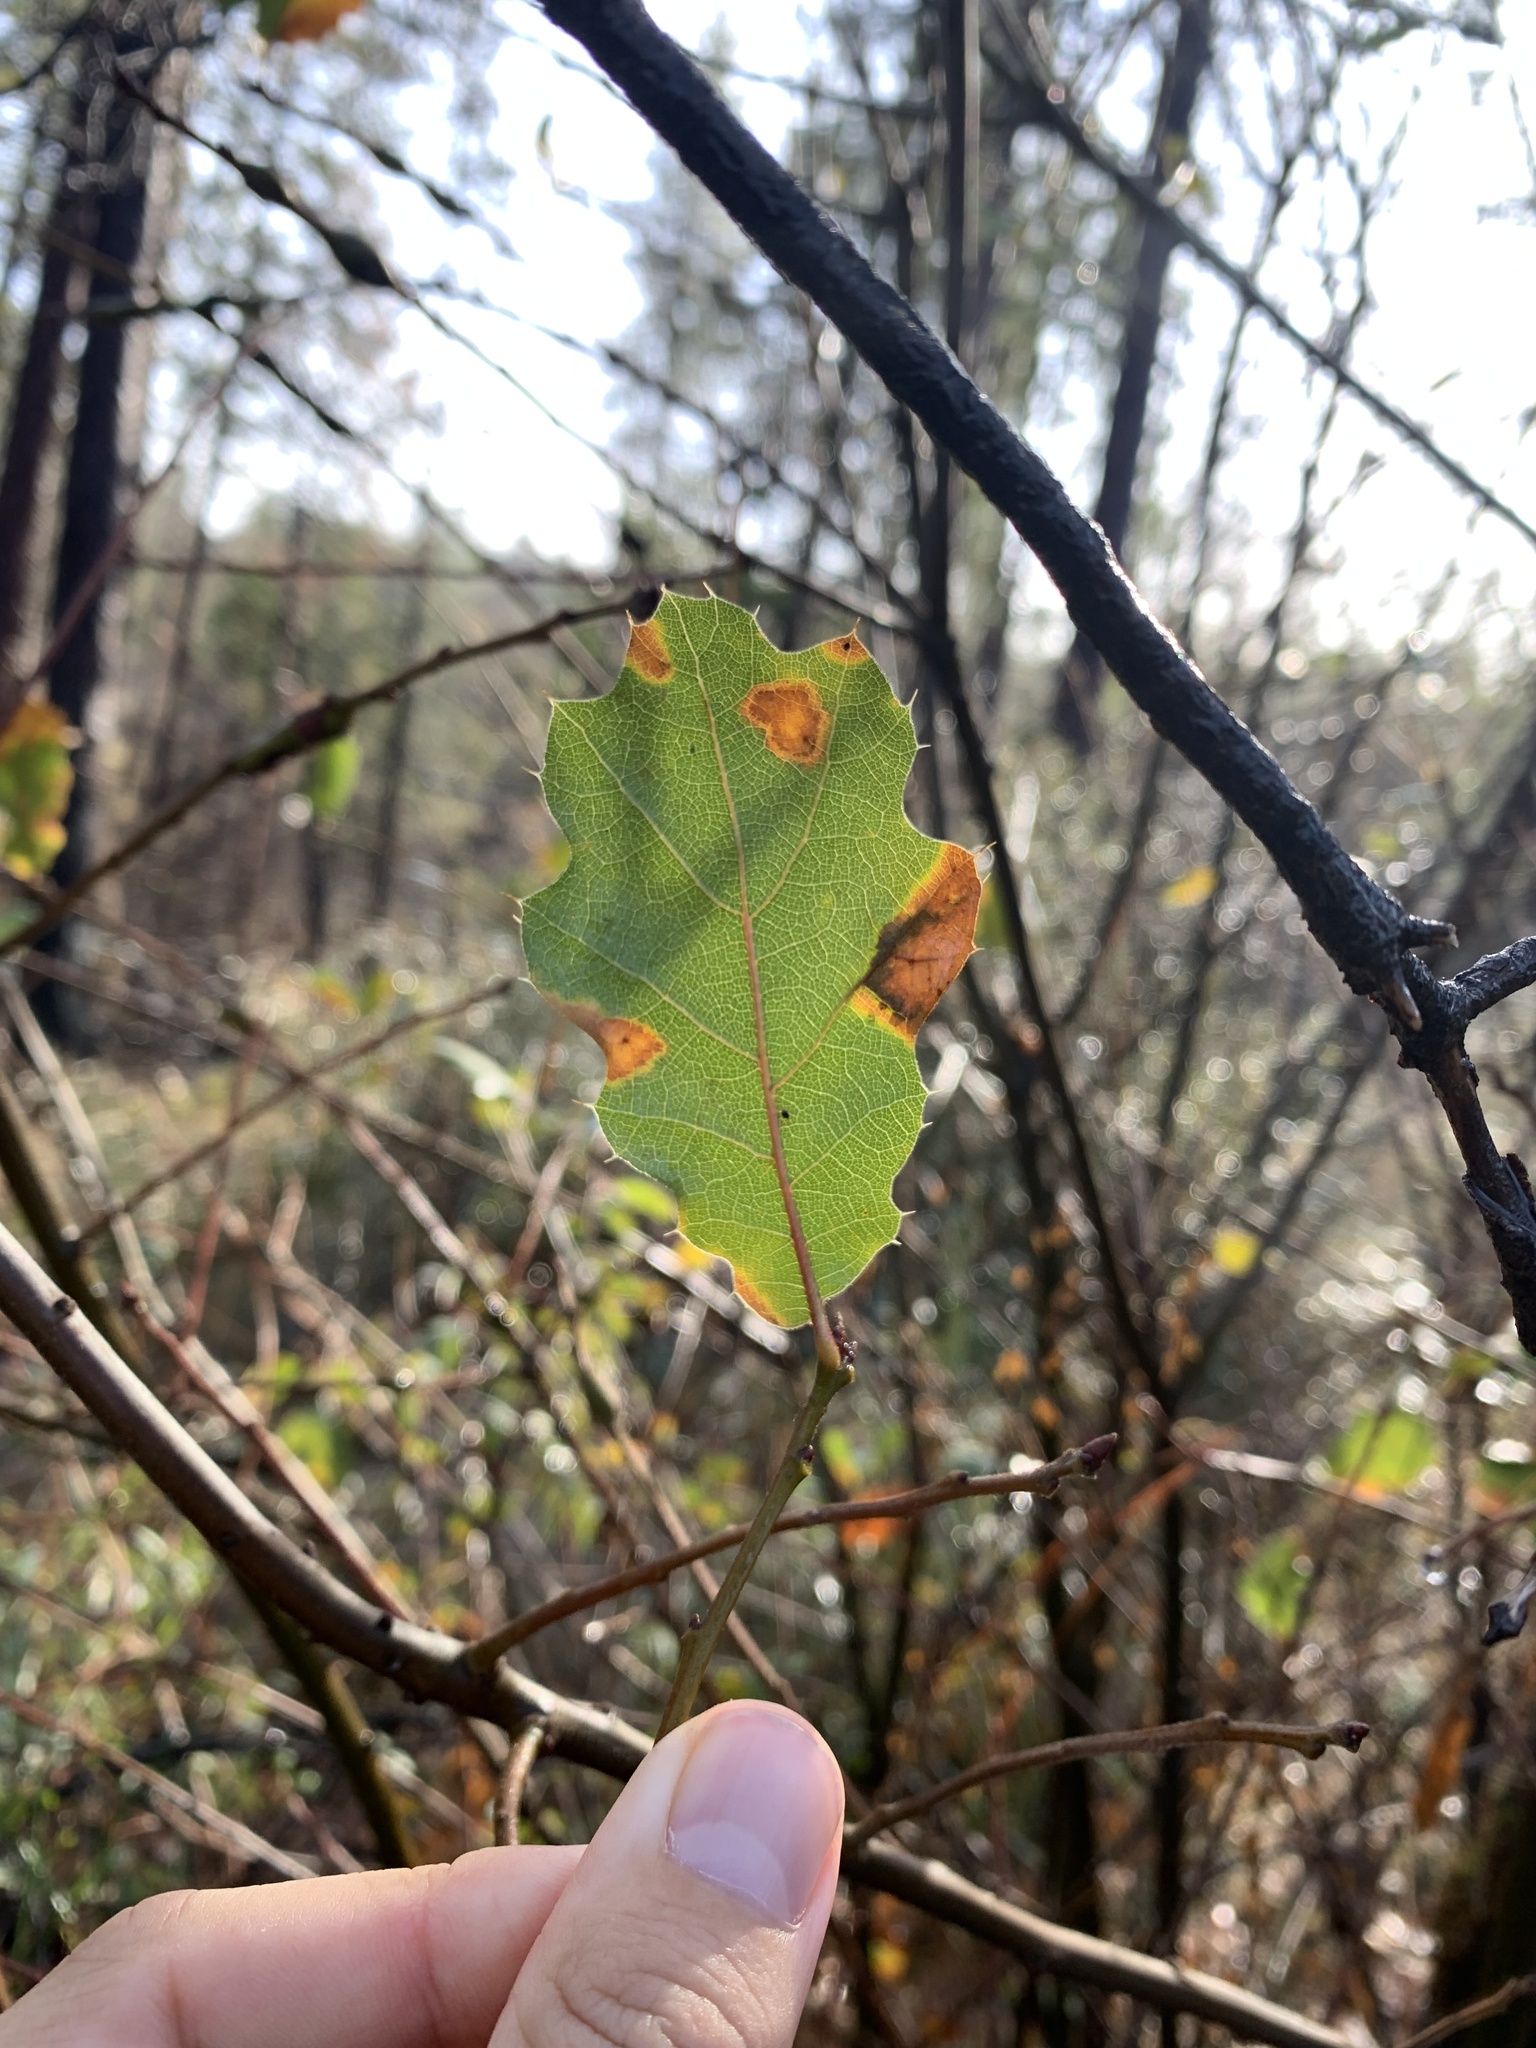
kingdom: Plantae
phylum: Tracheophyta
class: Magnoliopsida
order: Fagales
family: Fagaceae
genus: Quercus
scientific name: Quercus morehus
